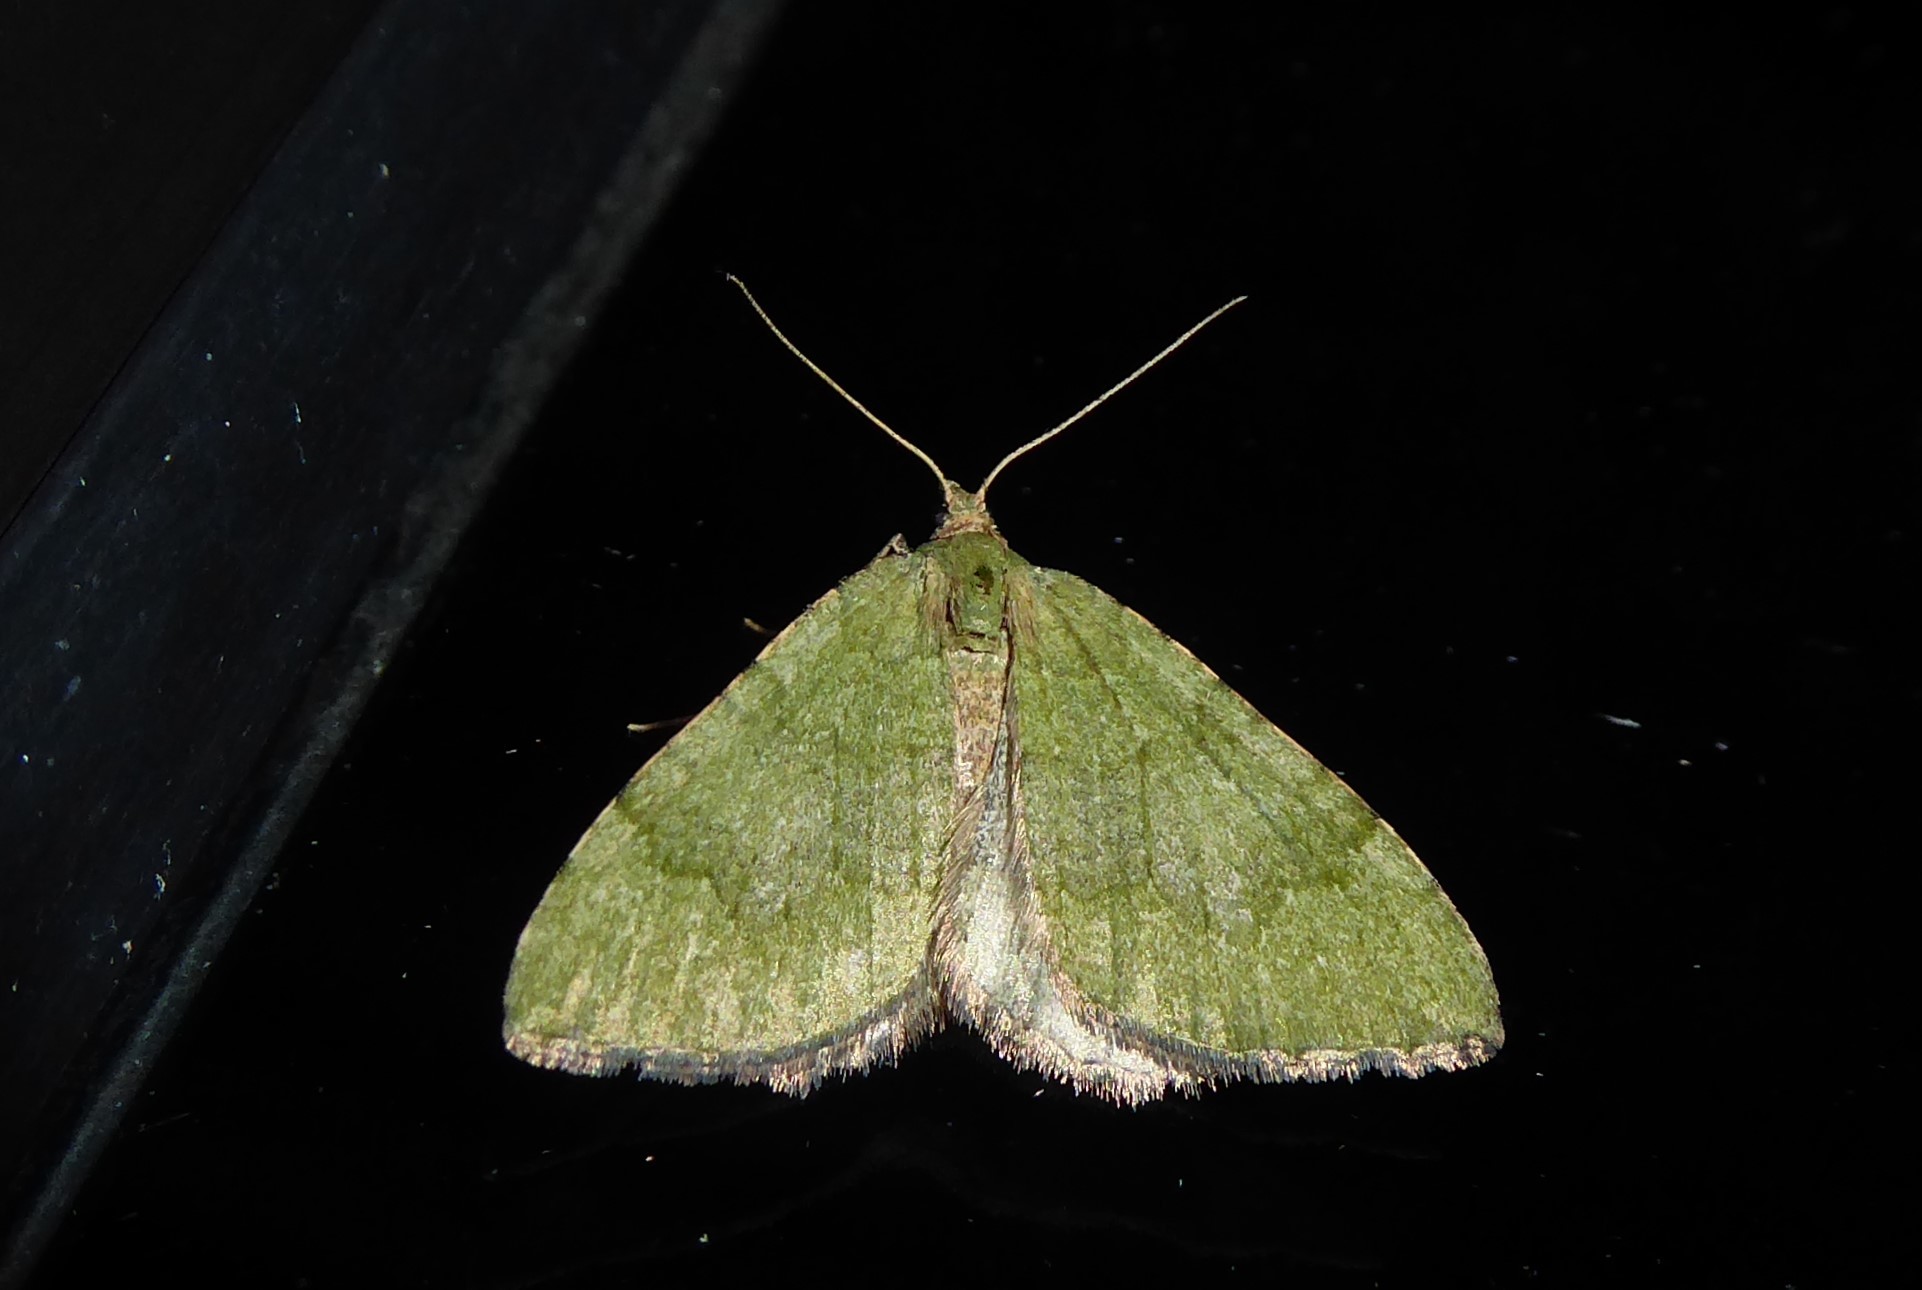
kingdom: Animalia
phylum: Arthropoda
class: Insecta
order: Lepidoptera
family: Geometridae
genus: Epyaxa
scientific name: Epyaxa rosearia
